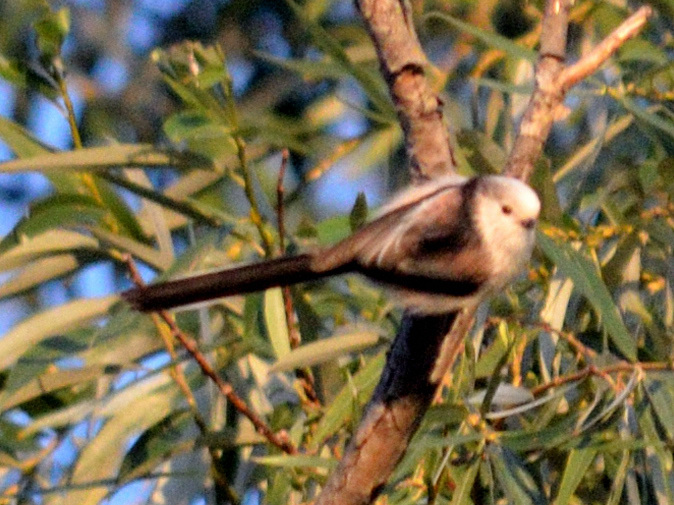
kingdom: Animalia
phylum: Chordata
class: Aves
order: Passeriformes
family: Aegithalidae
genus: Aegithalos
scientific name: Aegithalos caudatus
